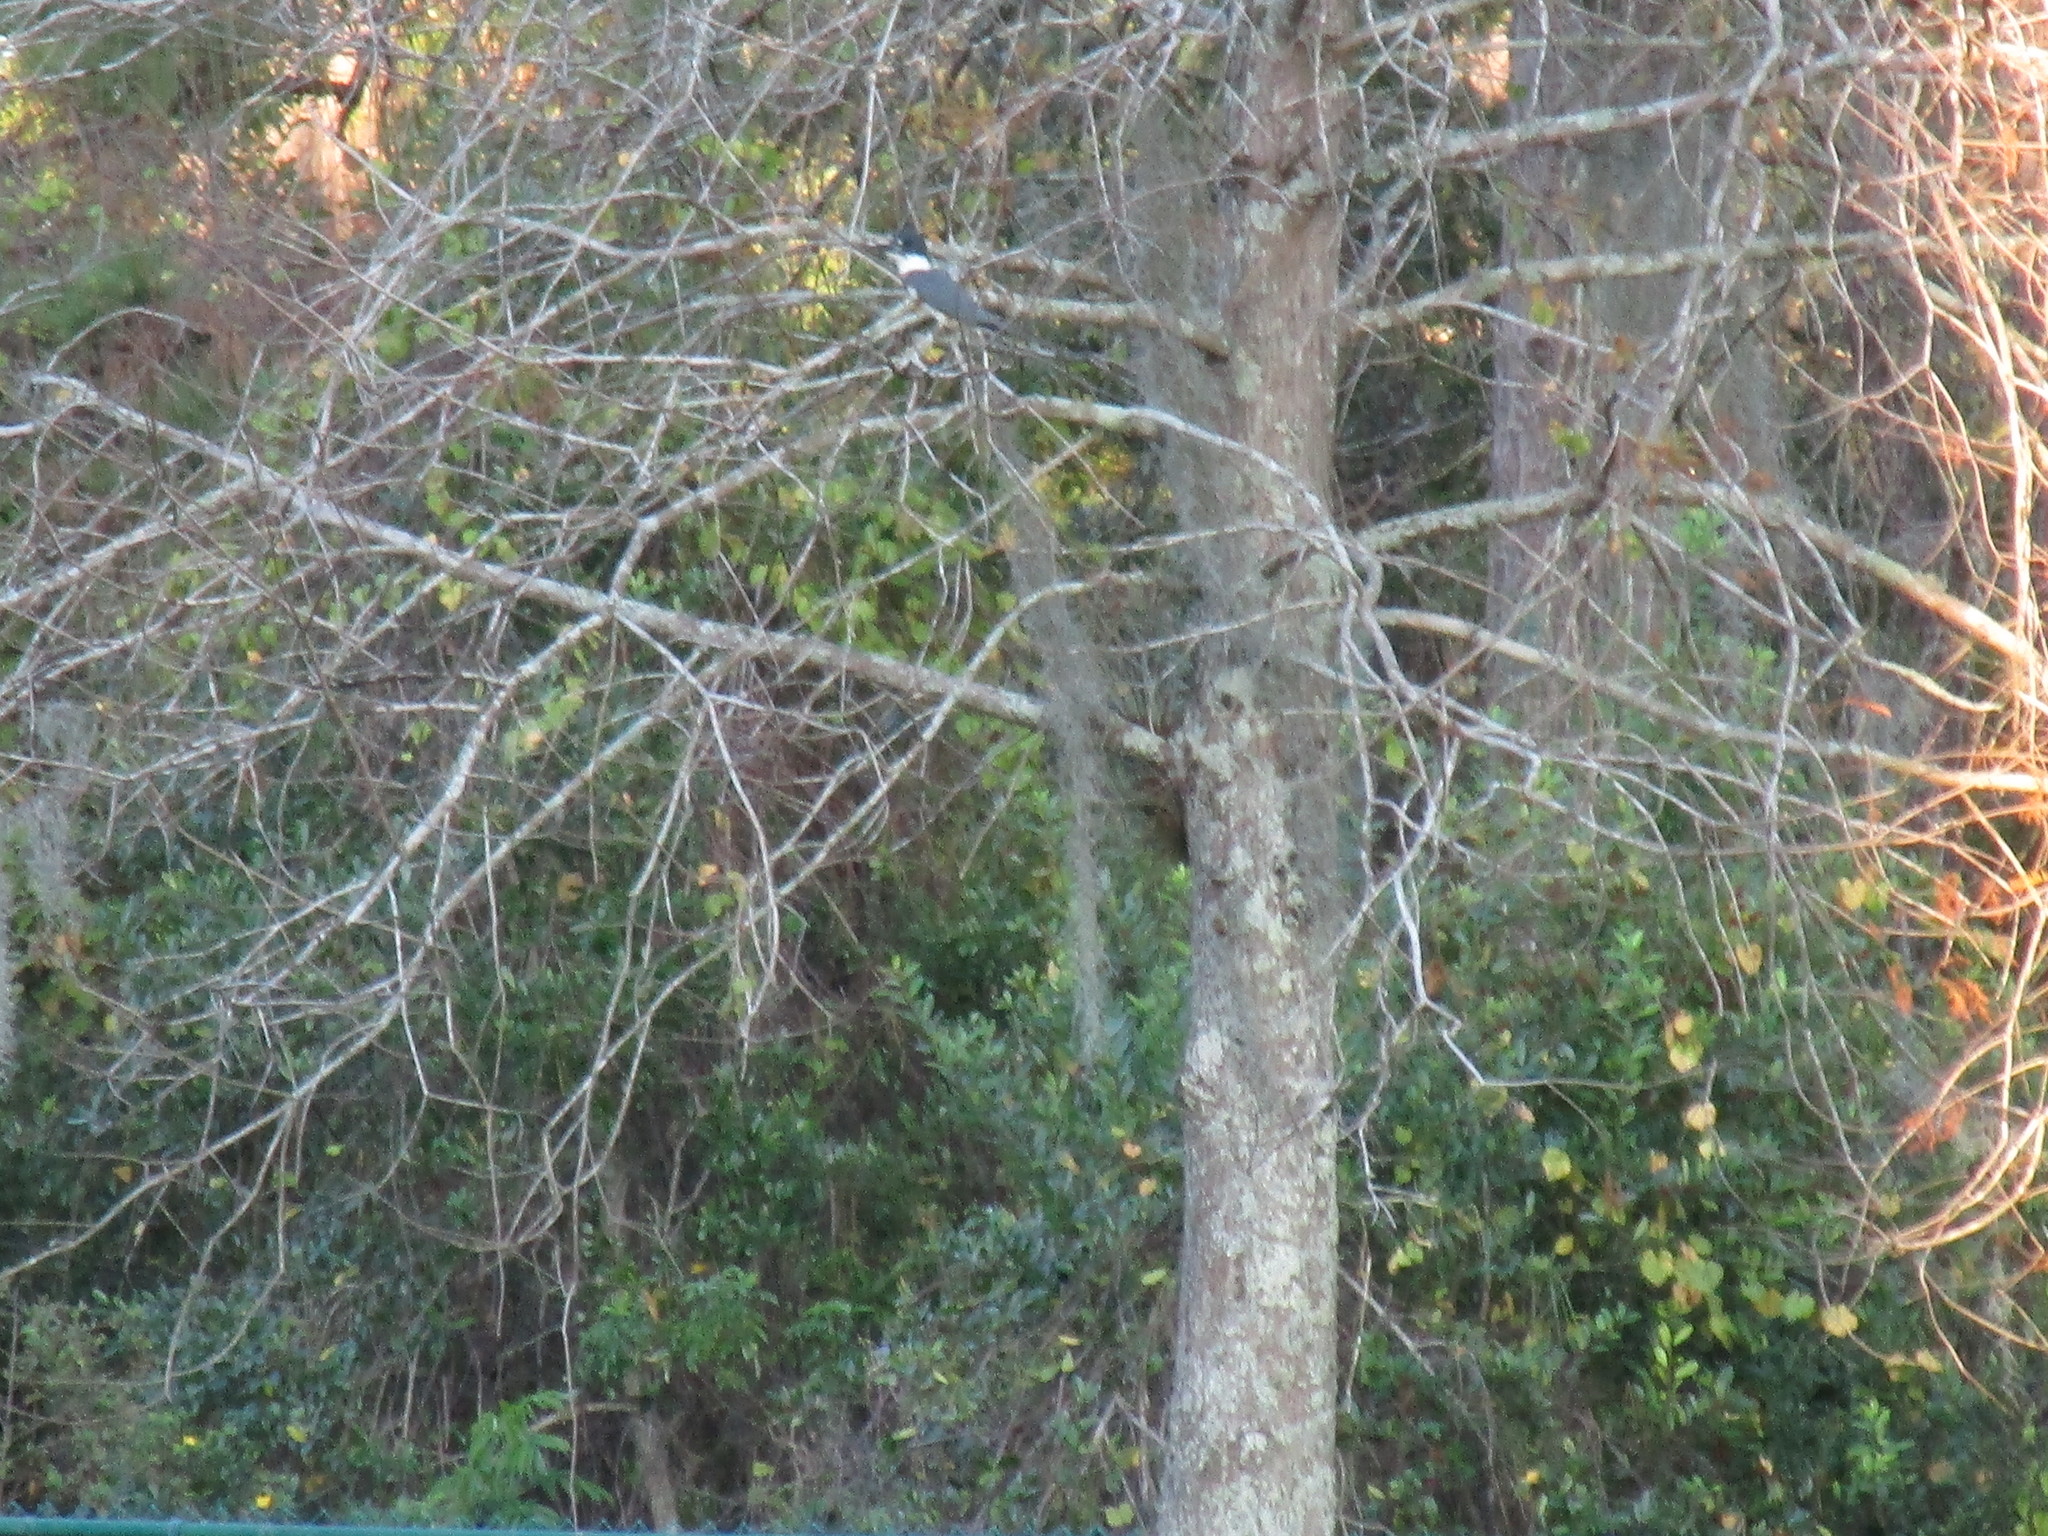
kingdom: Animalia
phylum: Chordata
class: Aves
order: Coraciiformes
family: Alcedinidae
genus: Megaceryle
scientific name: Megaceryle alcyon
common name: Belted kingfisher
